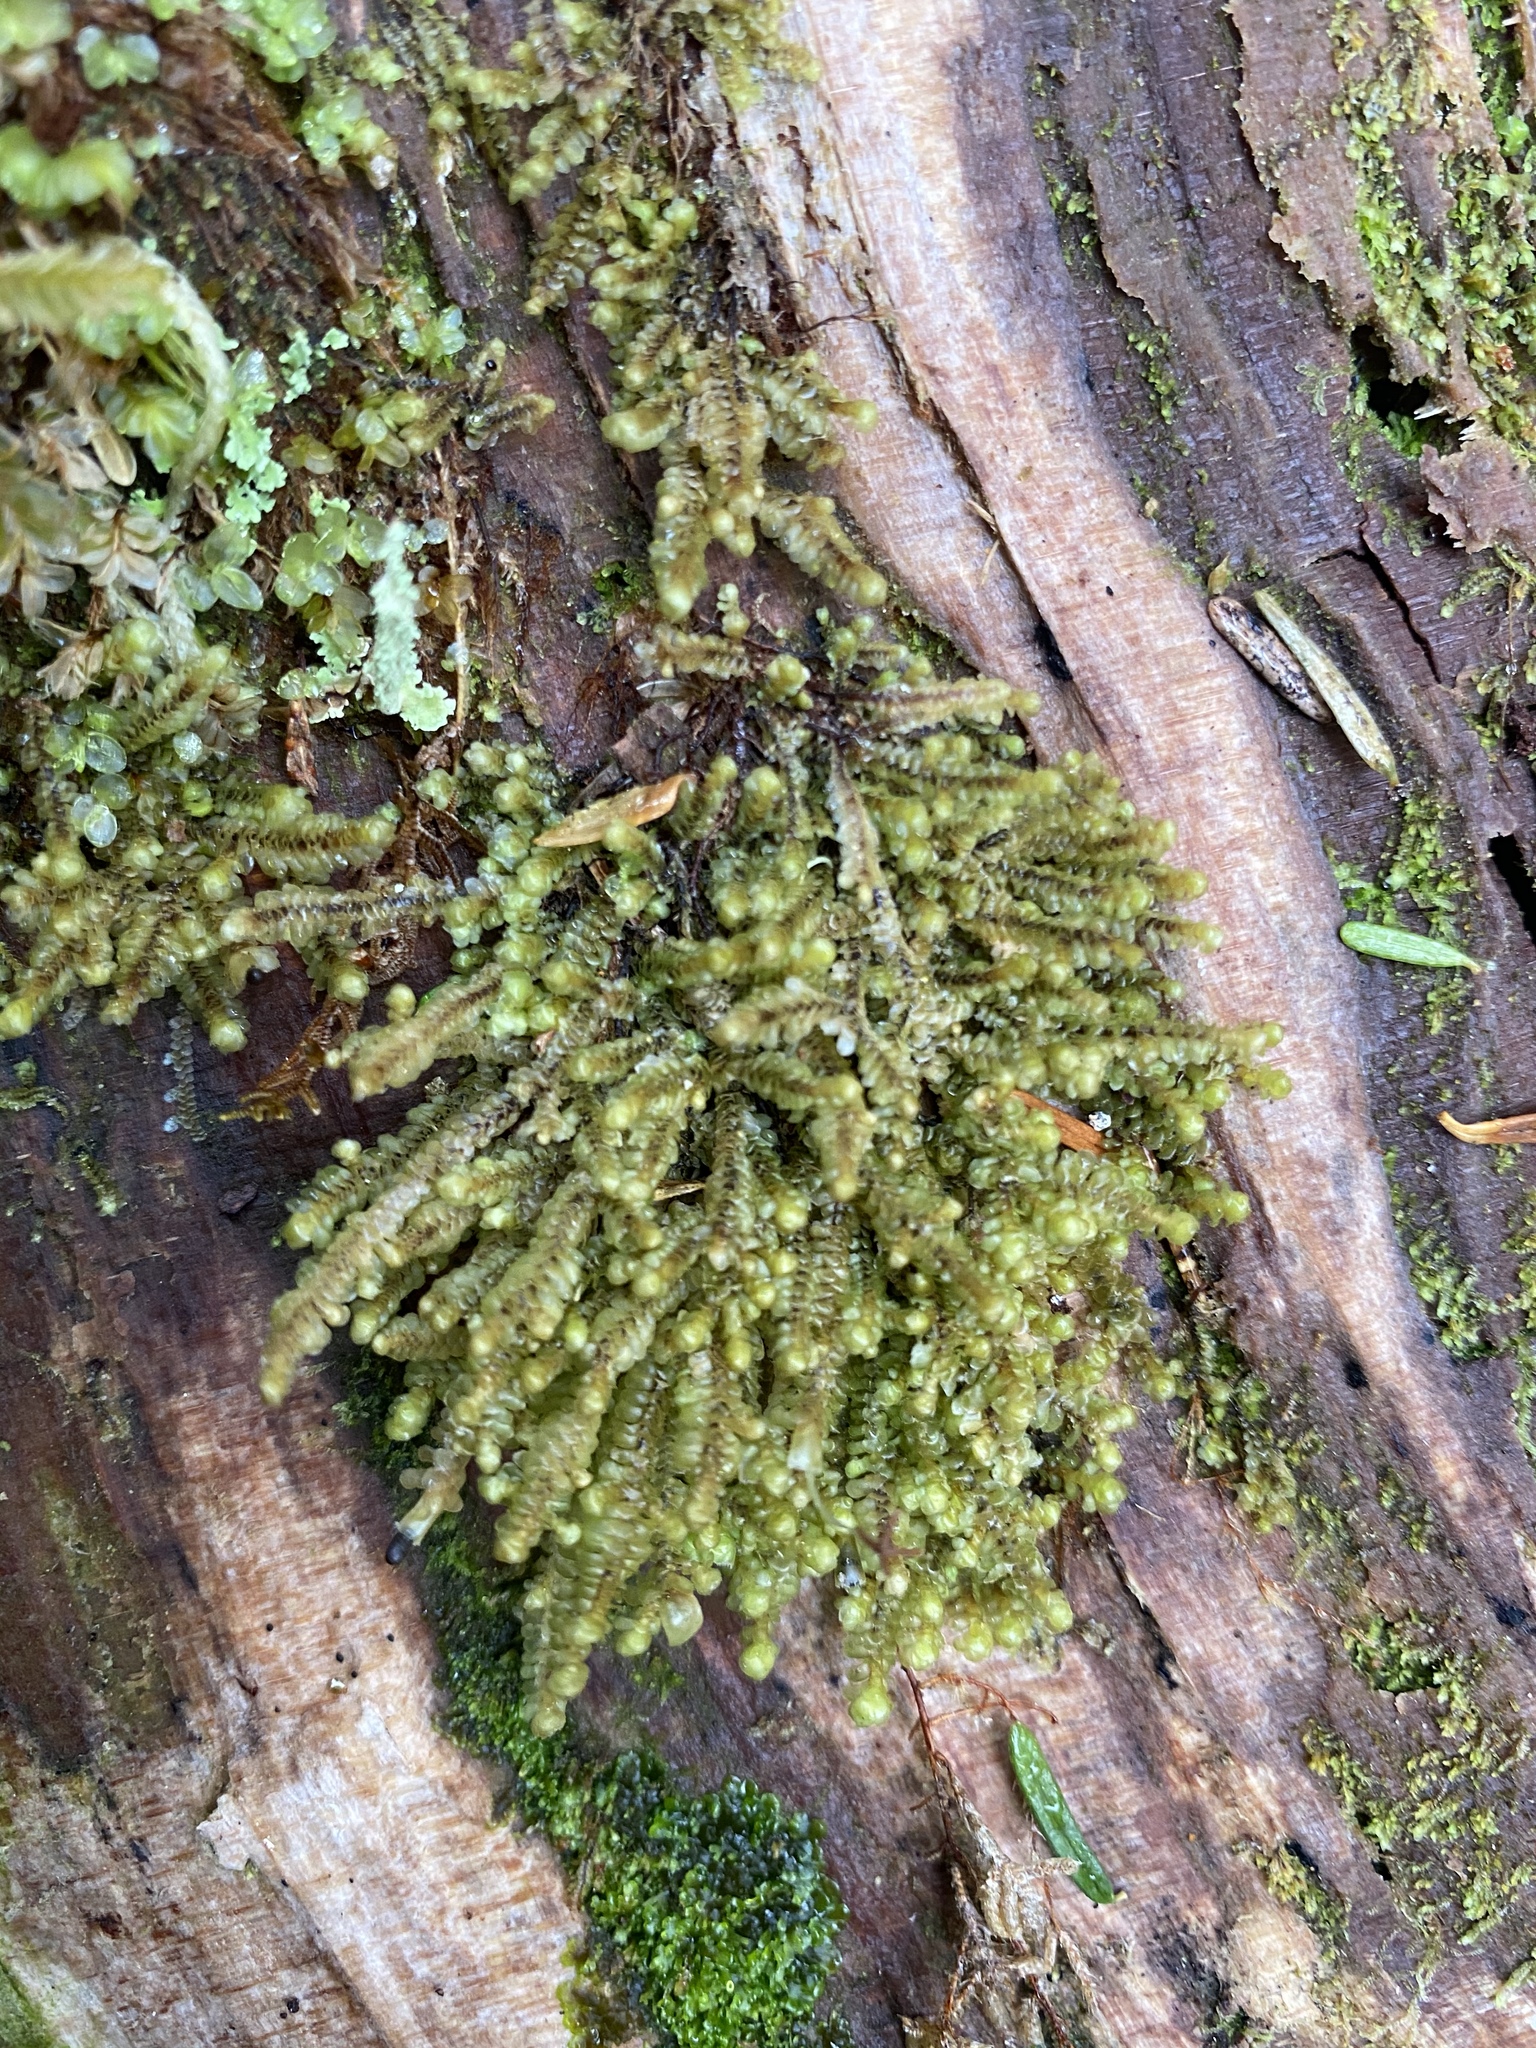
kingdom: Plantae
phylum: Marchantiophyta
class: Jungermanniopsida
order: Jungermanniales
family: Scapaniaceae
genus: Scapania
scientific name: Scapania bolanderi
